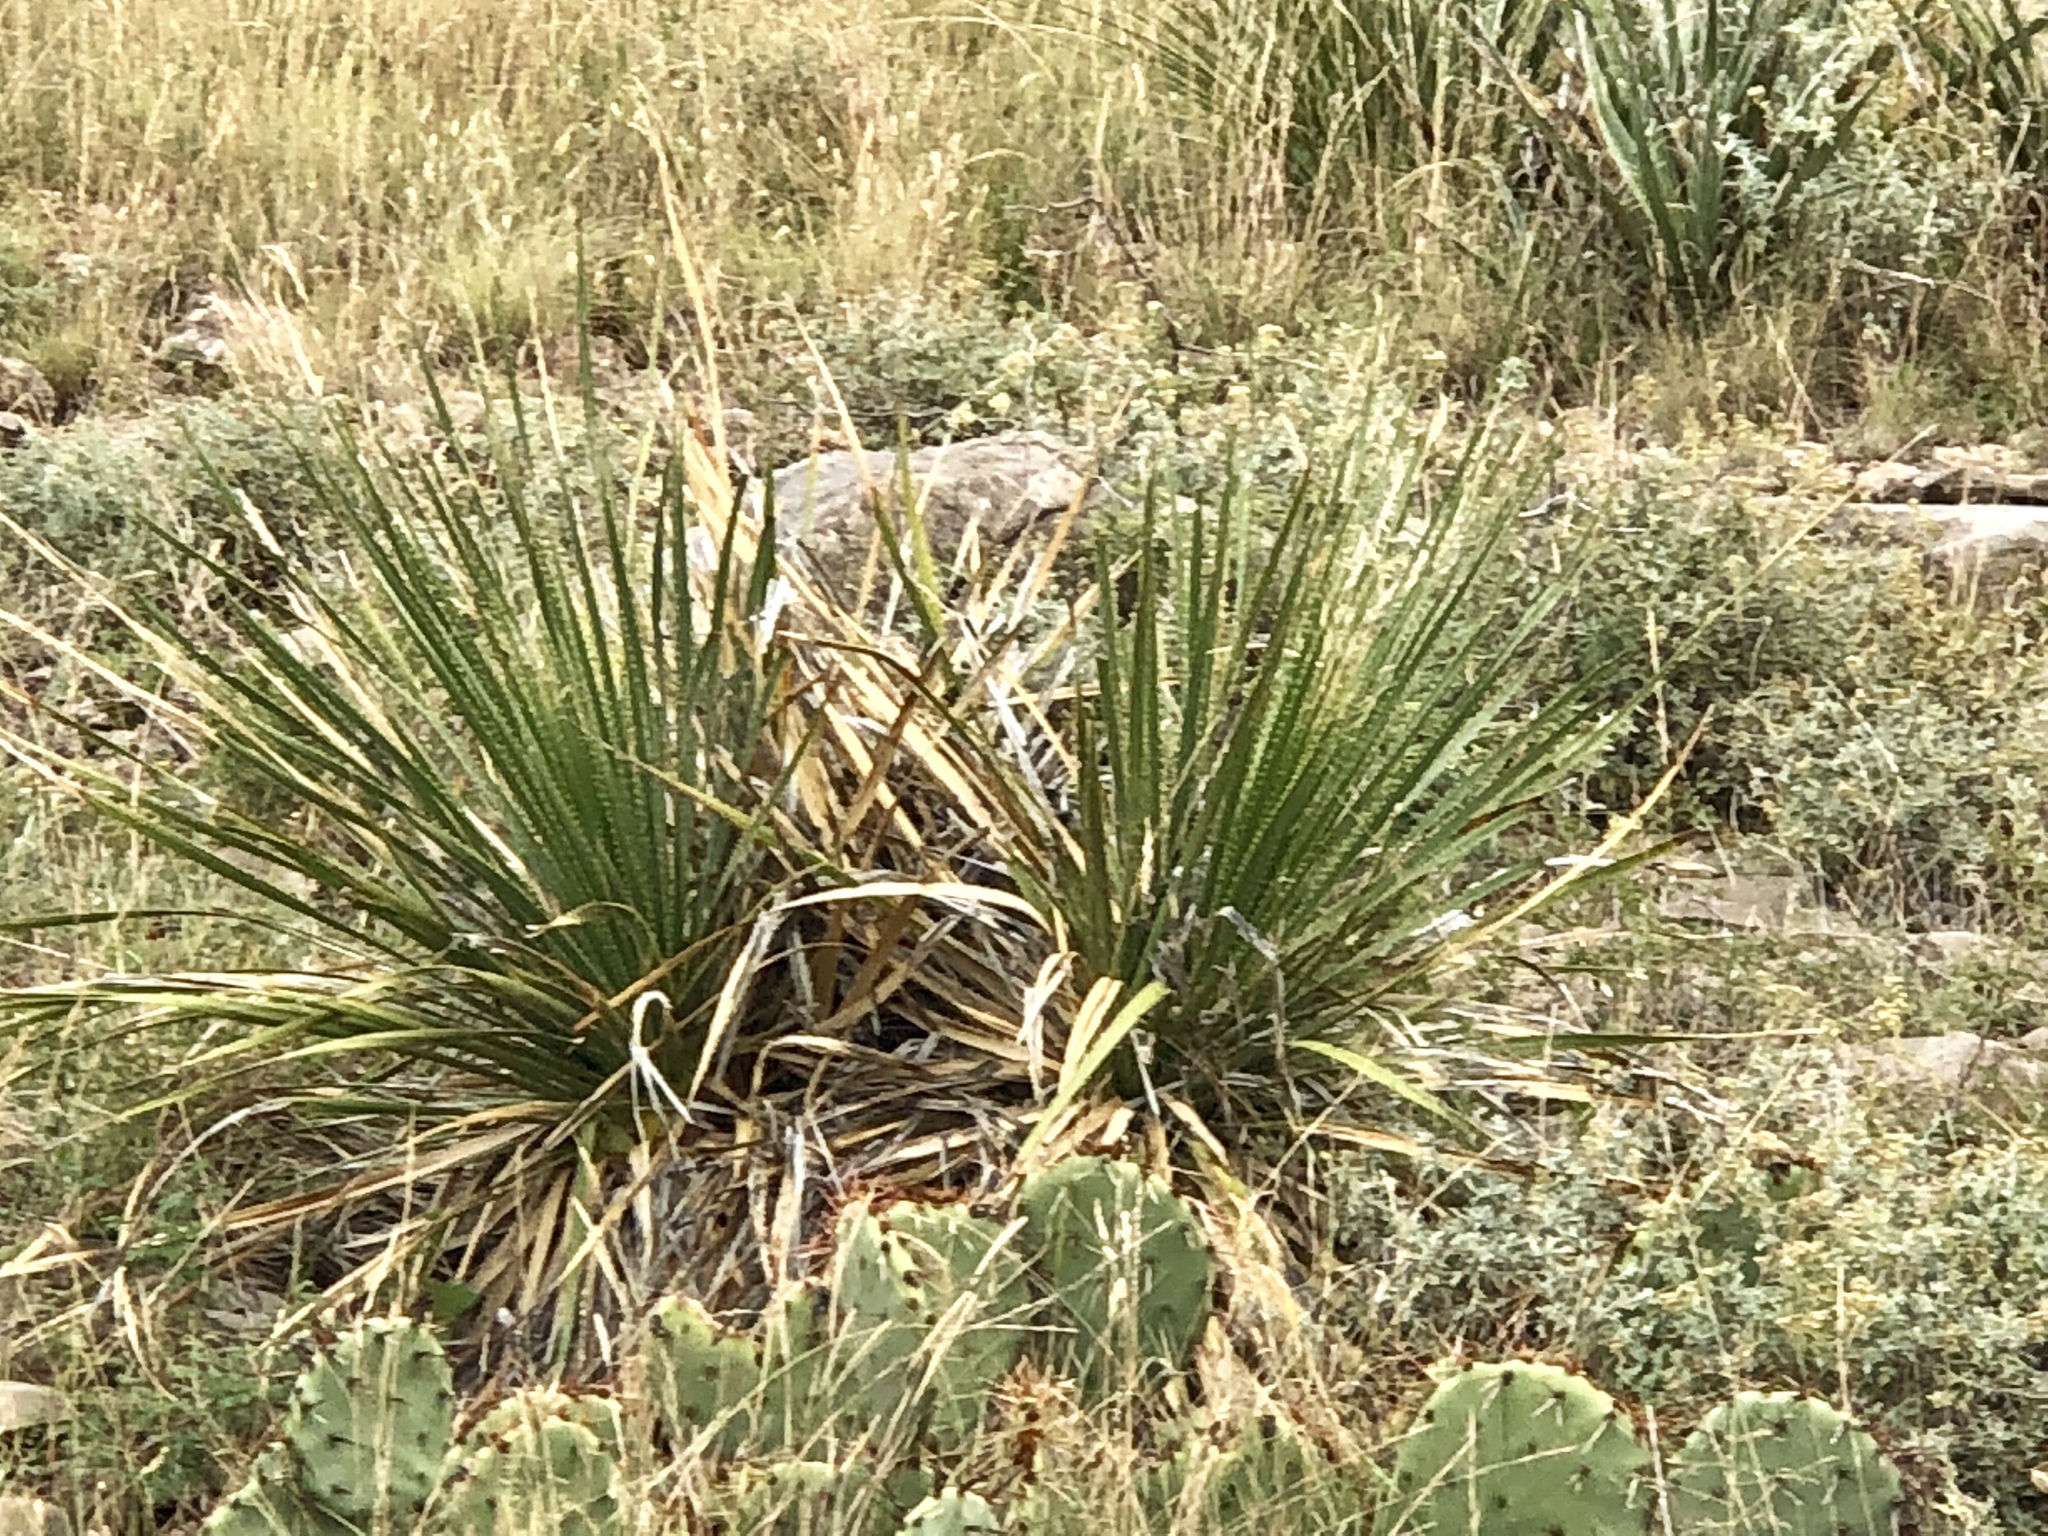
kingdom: Plantae
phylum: Tracheophyta
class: Liliopsida
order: Asparagales
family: Asparagaceae
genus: Dasylirion
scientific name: Dasylirion wheeleri
